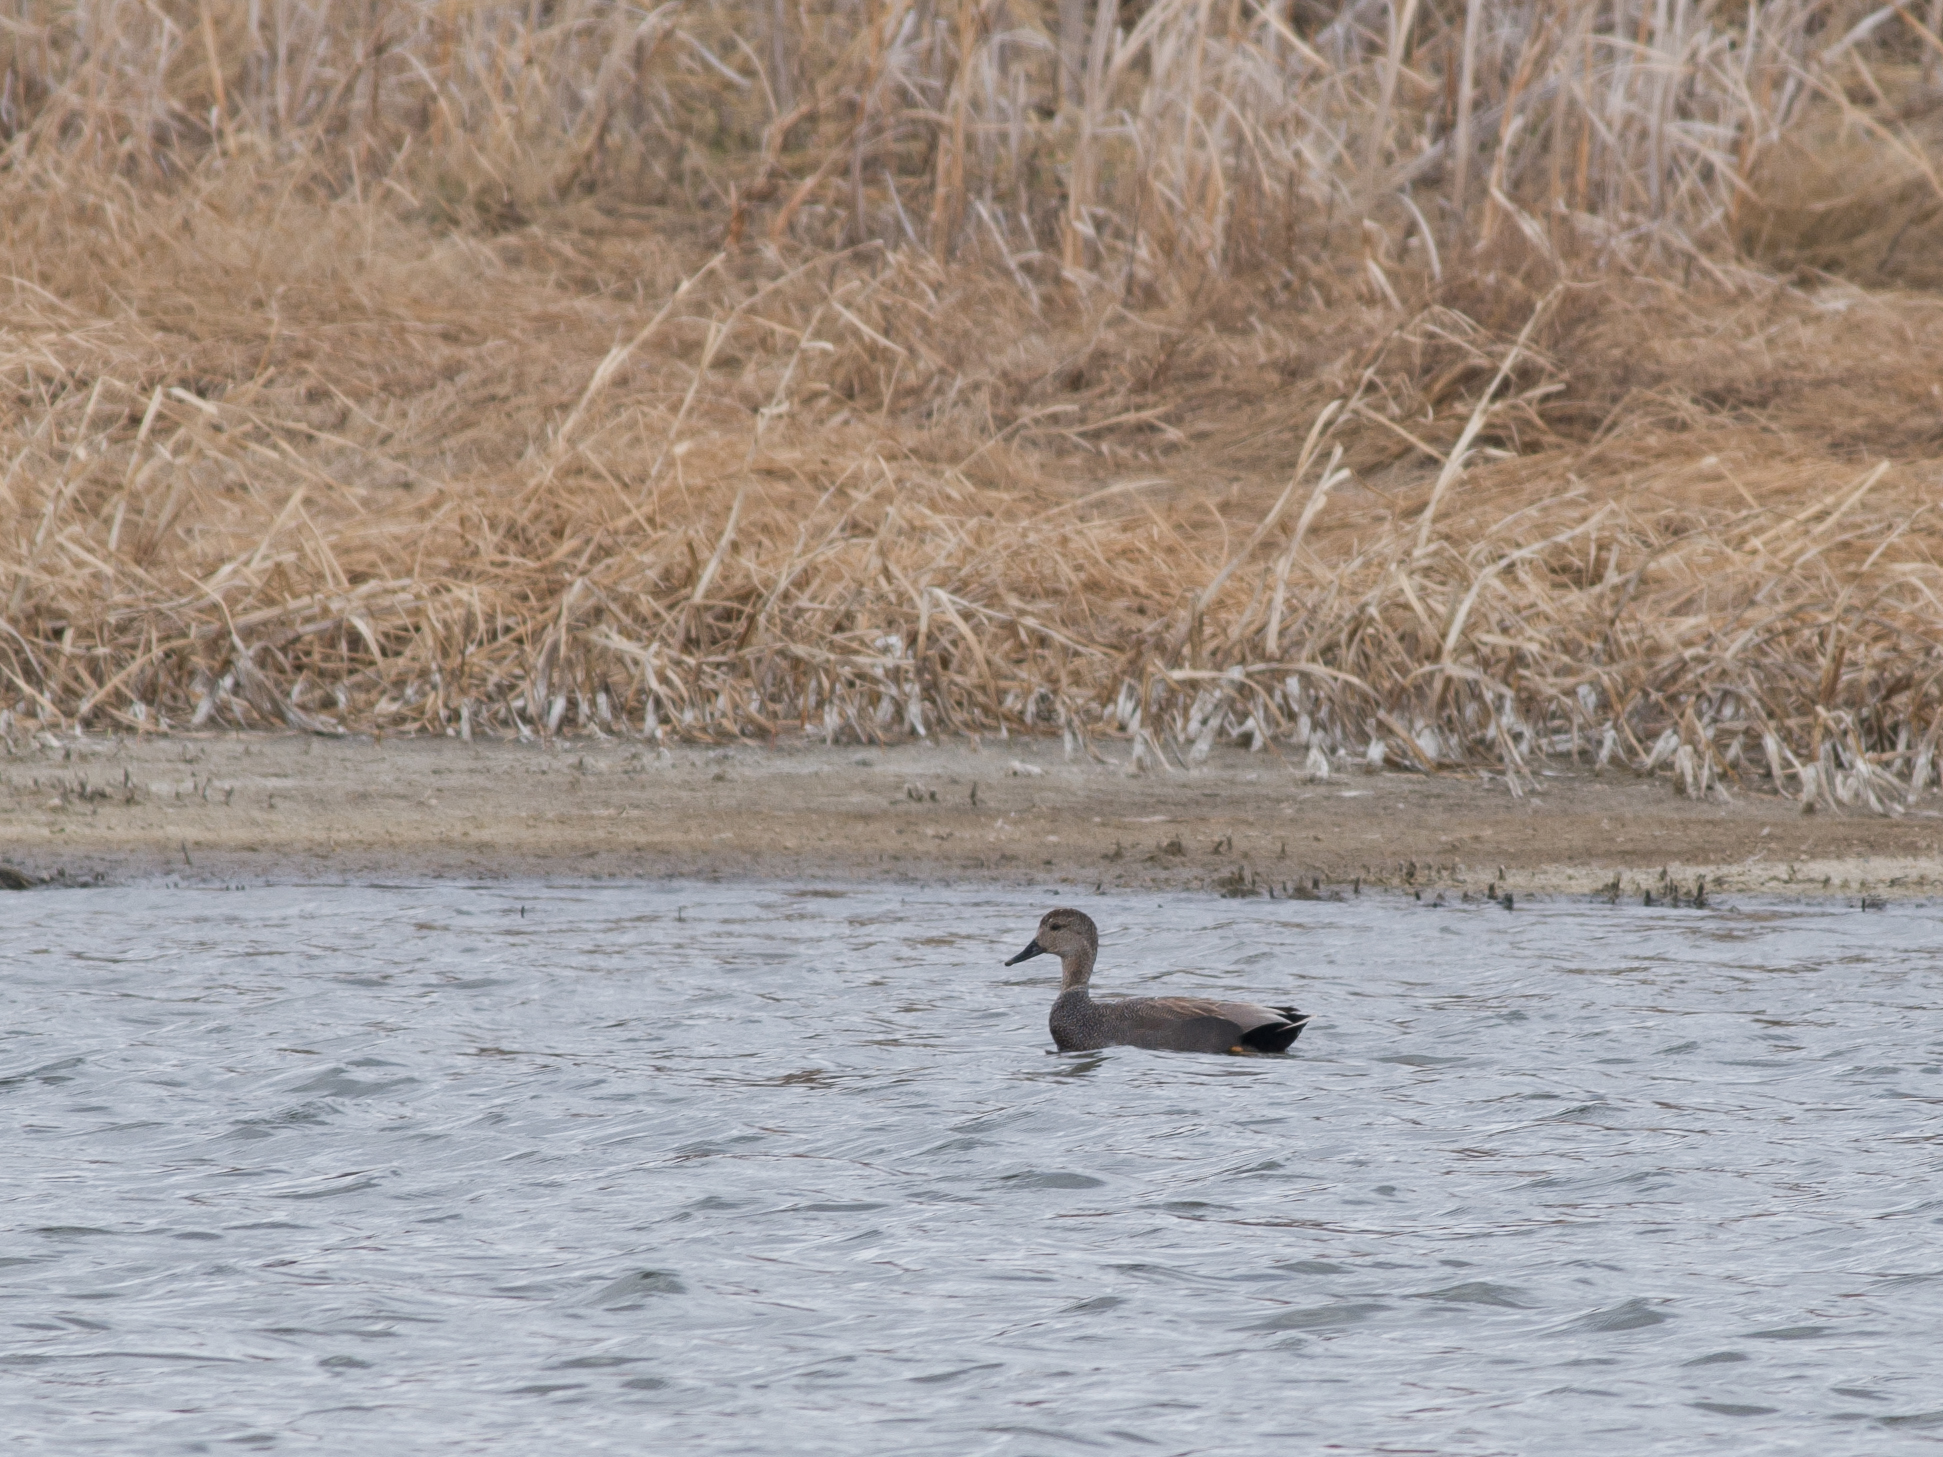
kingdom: Animalia
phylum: Chordata
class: Aves
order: Anseriformes
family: Anatidae
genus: Mareca
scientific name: Mareca strepera
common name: Gadwall
